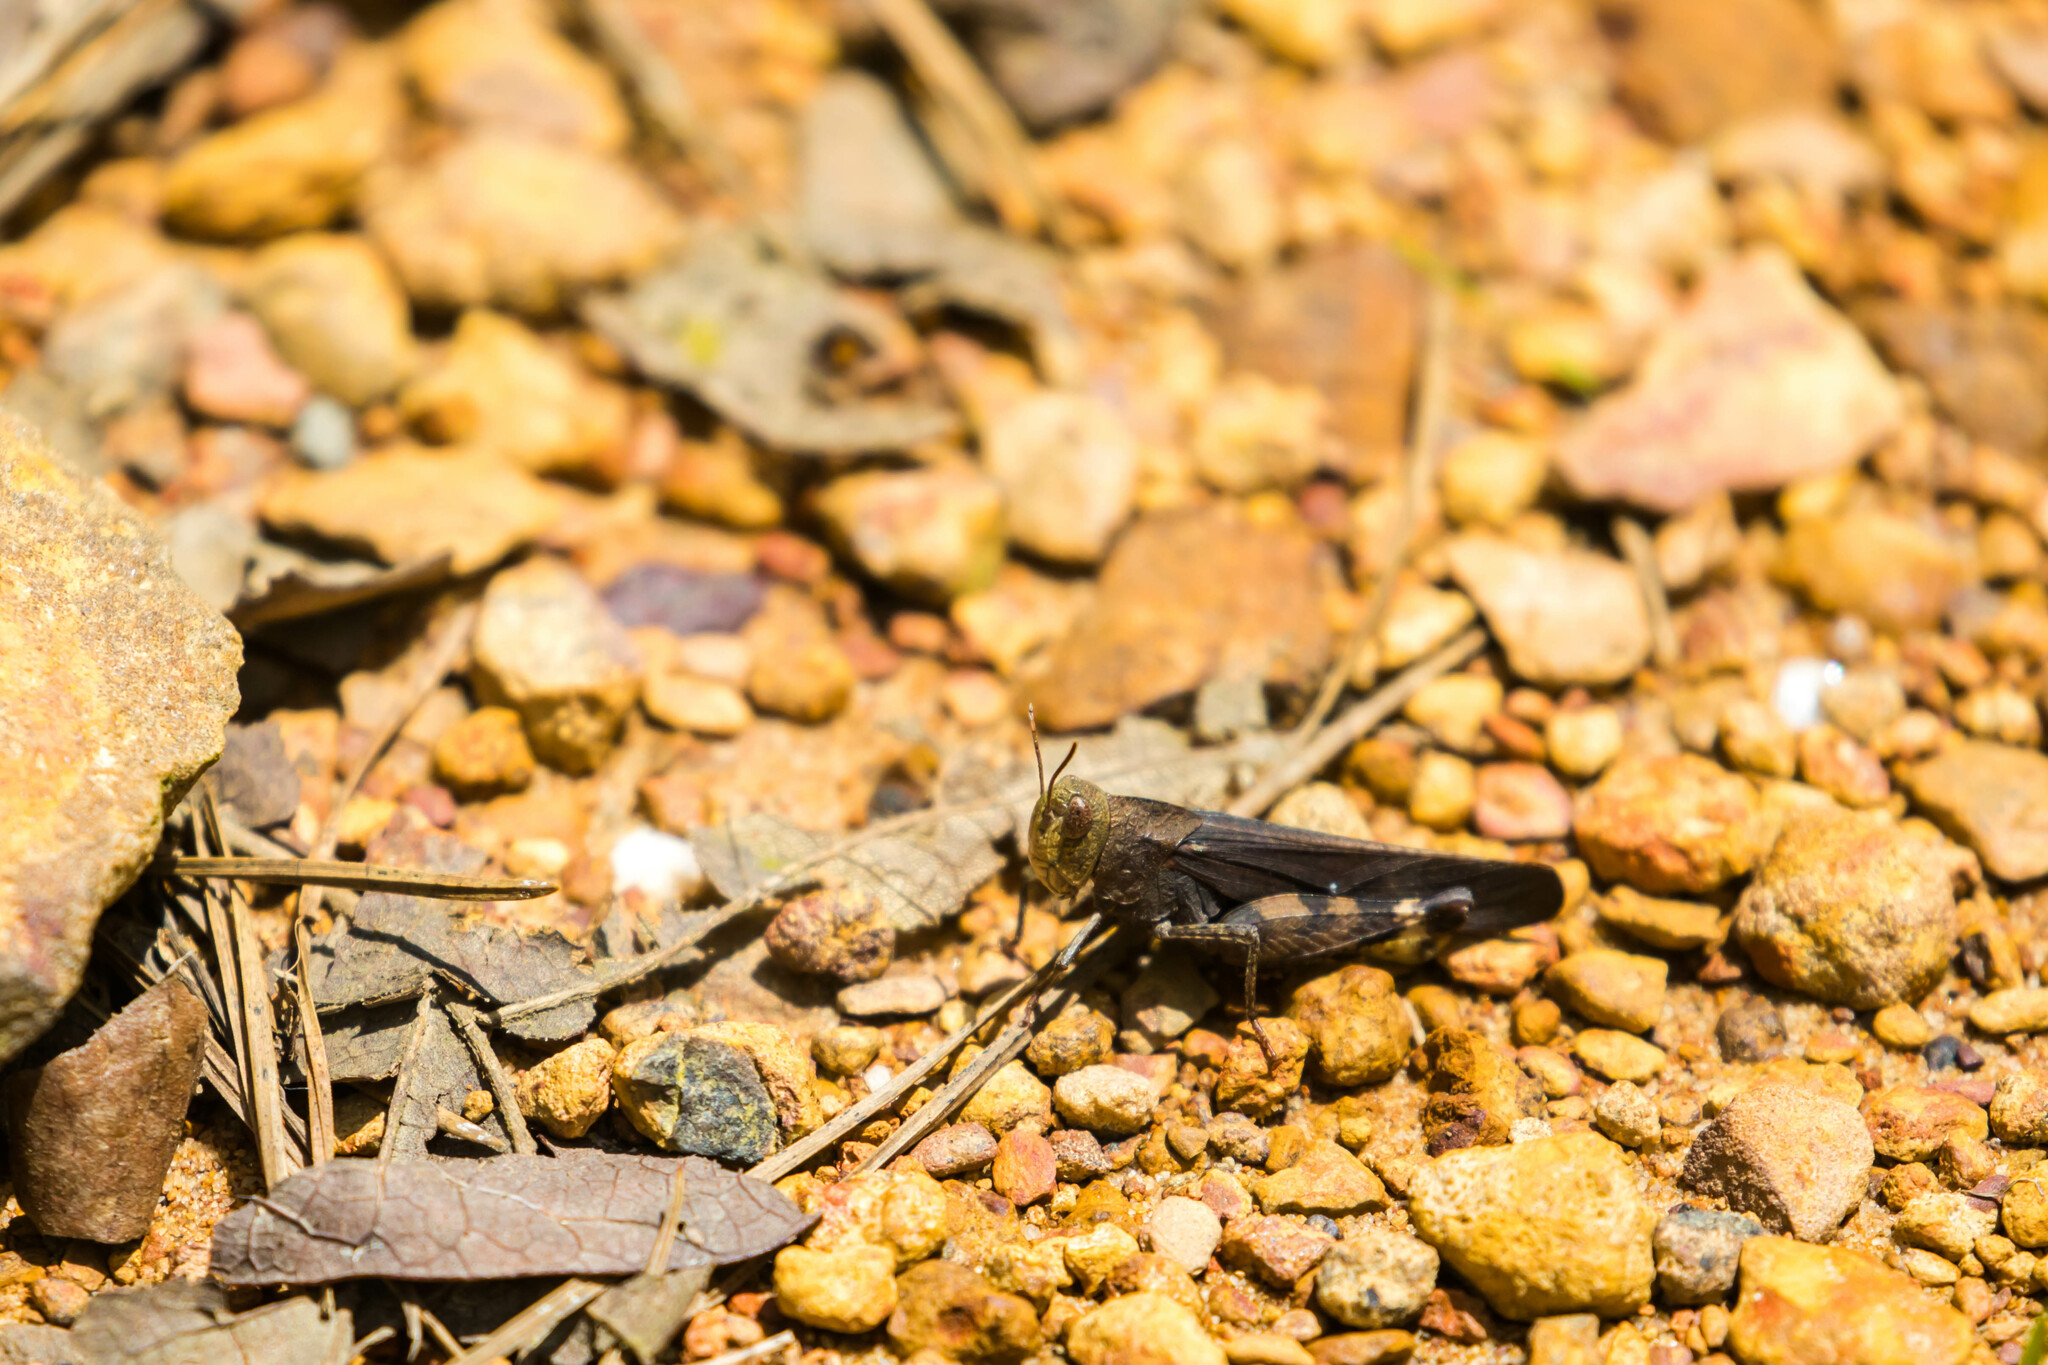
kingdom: Animalia
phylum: Arthropoda
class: Insecta
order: Orthoptera
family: Acrididae
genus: Arphia
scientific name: Arphia sulphurea
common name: Spring yellow-winged locust
